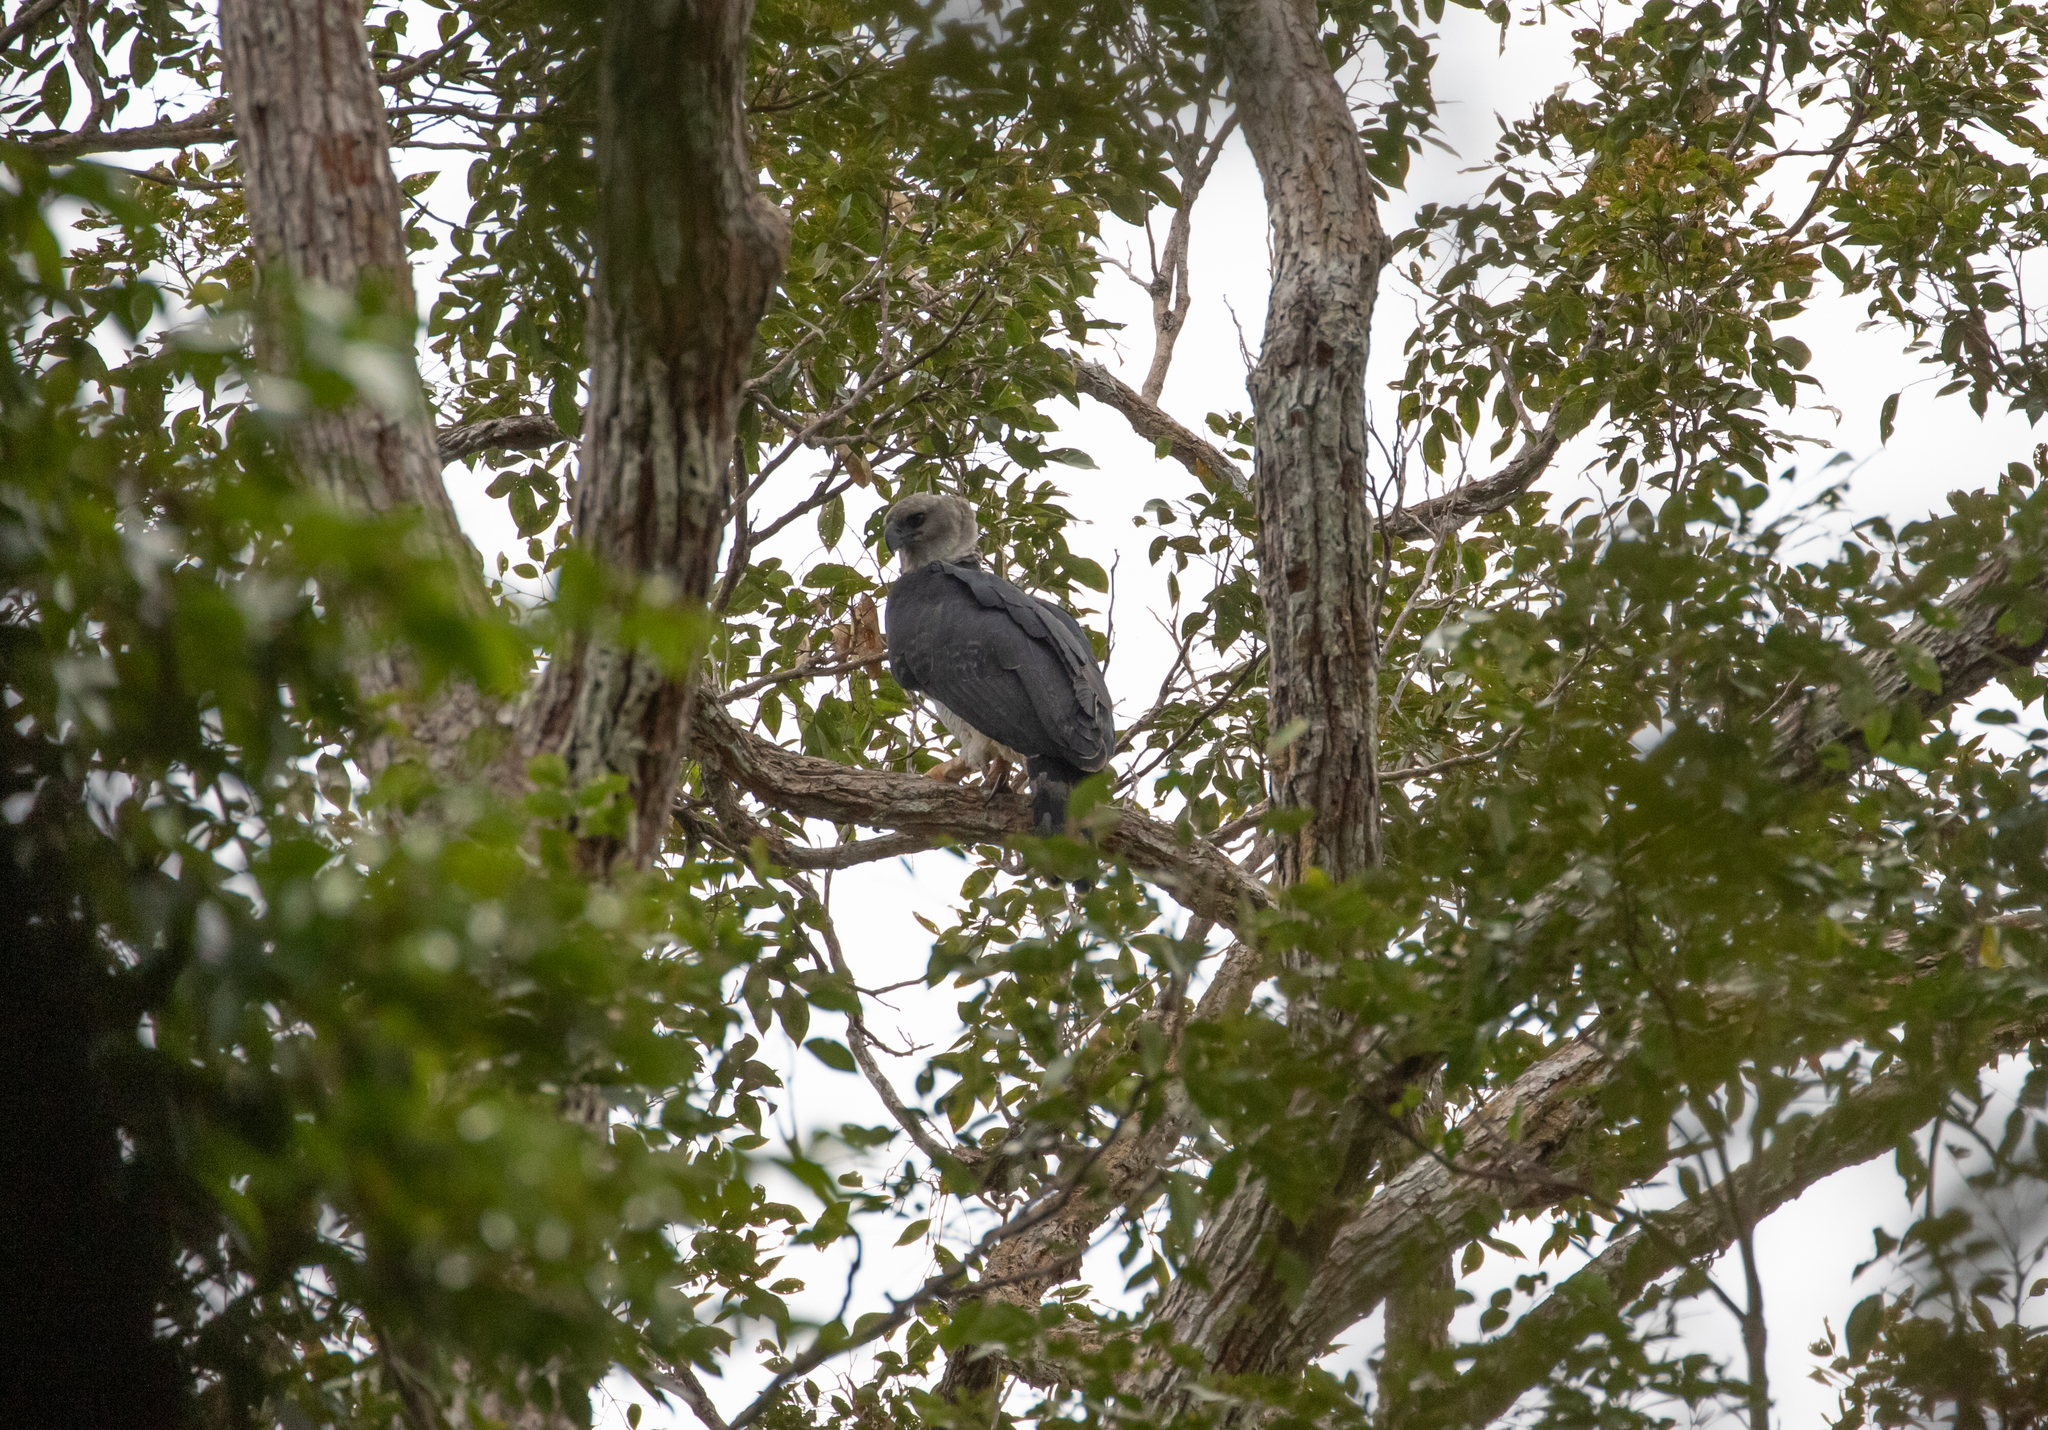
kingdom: Animalia
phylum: Chordata
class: Aves
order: Accipitriformes
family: Accipitridae
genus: Harpia
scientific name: Harpia harpyja
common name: Harpy eagle
